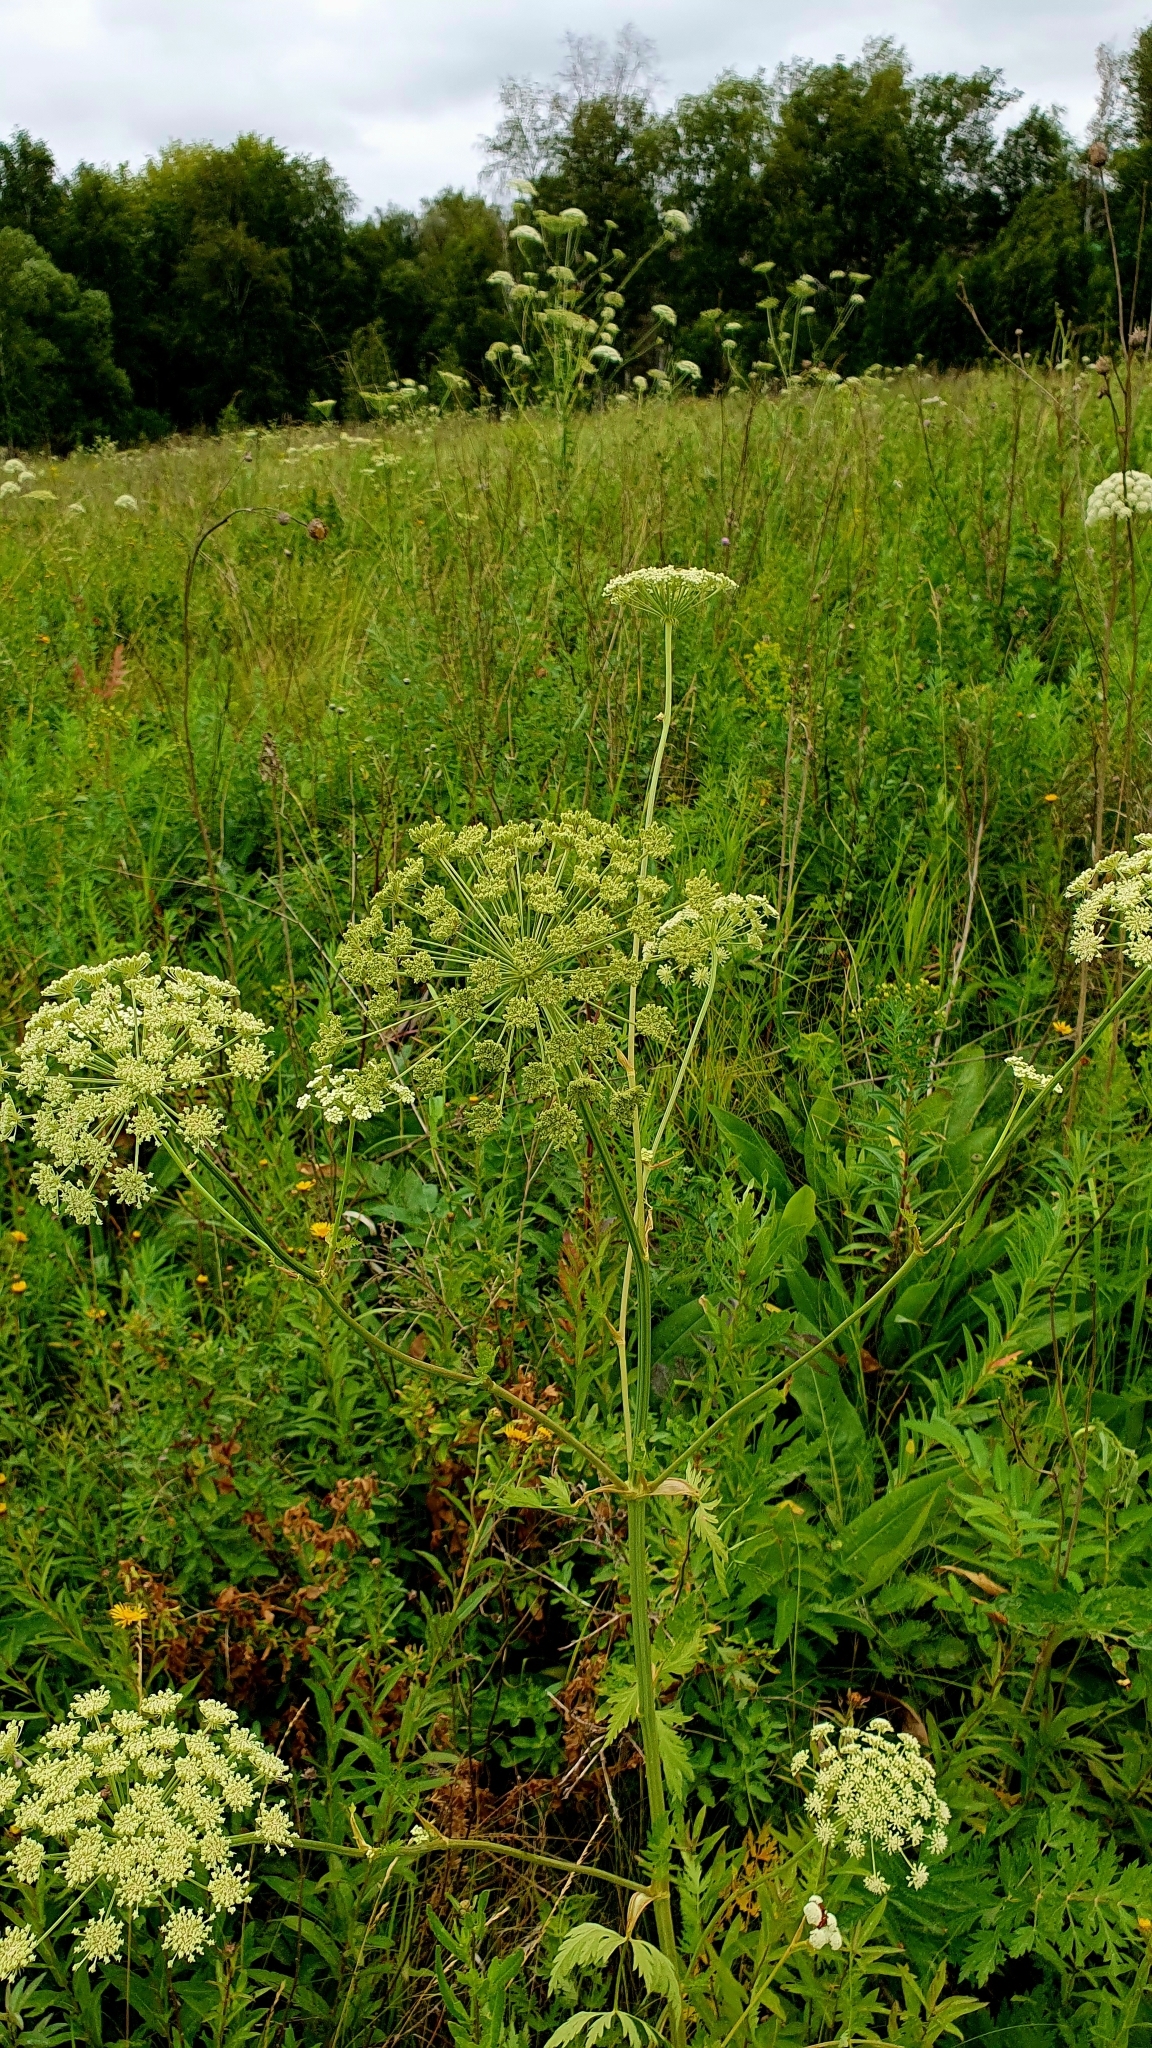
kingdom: Plantae
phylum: Tracheophyta
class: Magnoliopsida
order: Apiales
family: Apiaceae
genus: Seseli
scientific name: Seseli libanotis
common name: Mooncarrot
